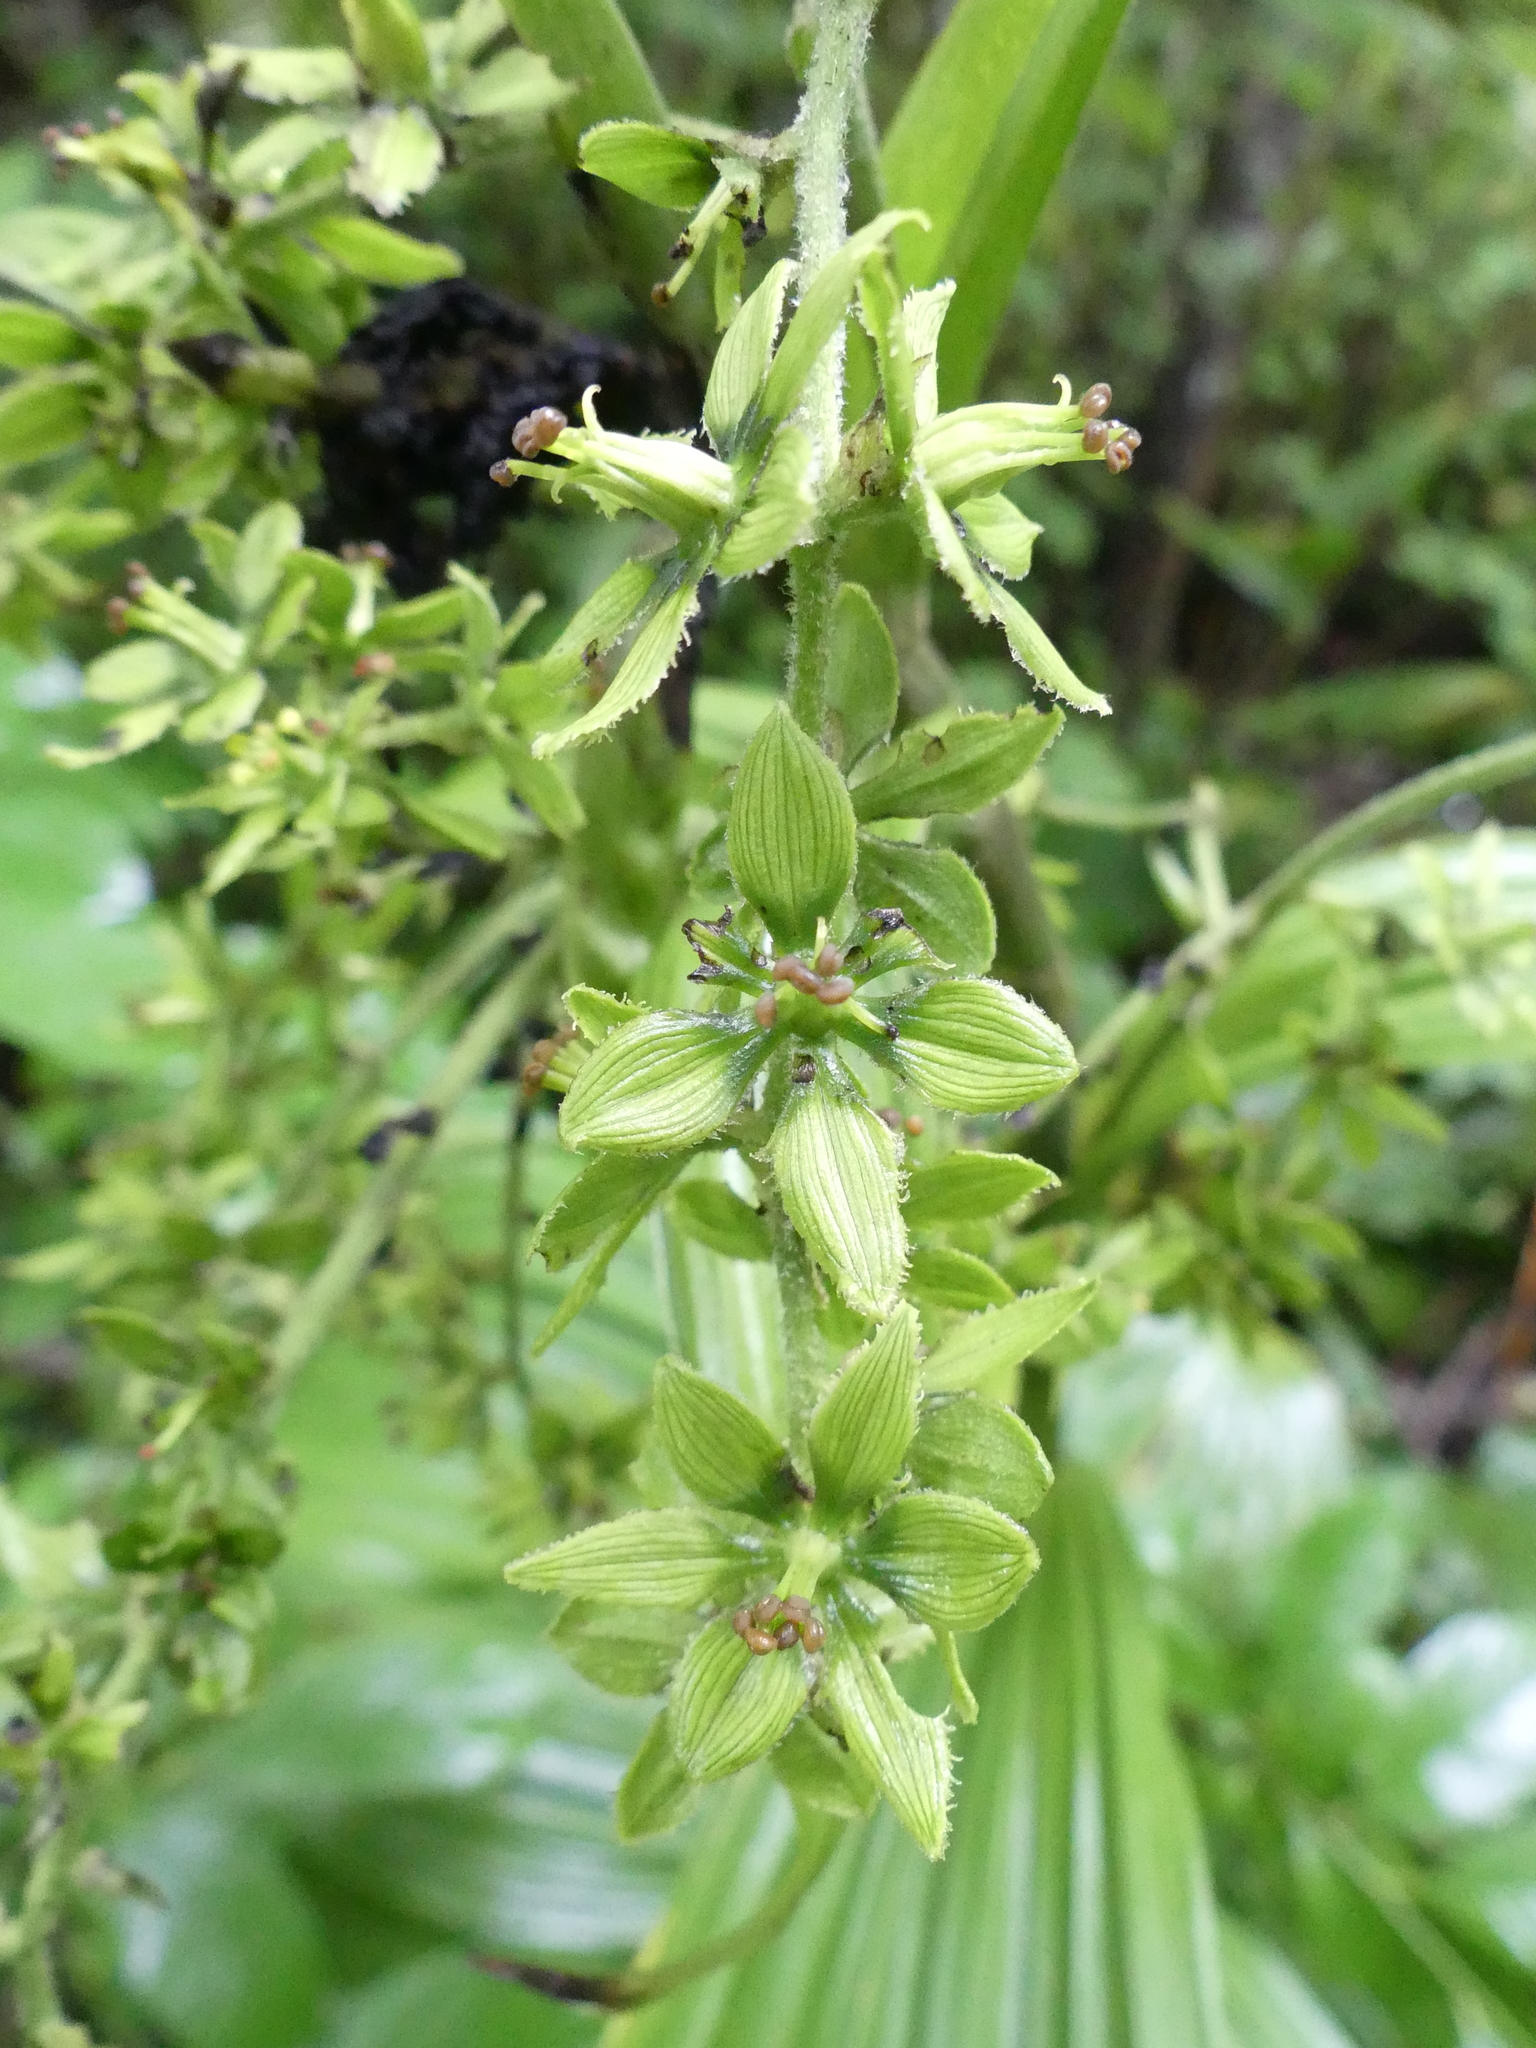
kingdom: Plantae
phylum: Tracheophyta
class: Liliopsida
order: Liliales
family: Melanthiaceae
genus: Veratrum
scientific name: Veratrum viride
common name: American false hellebore
